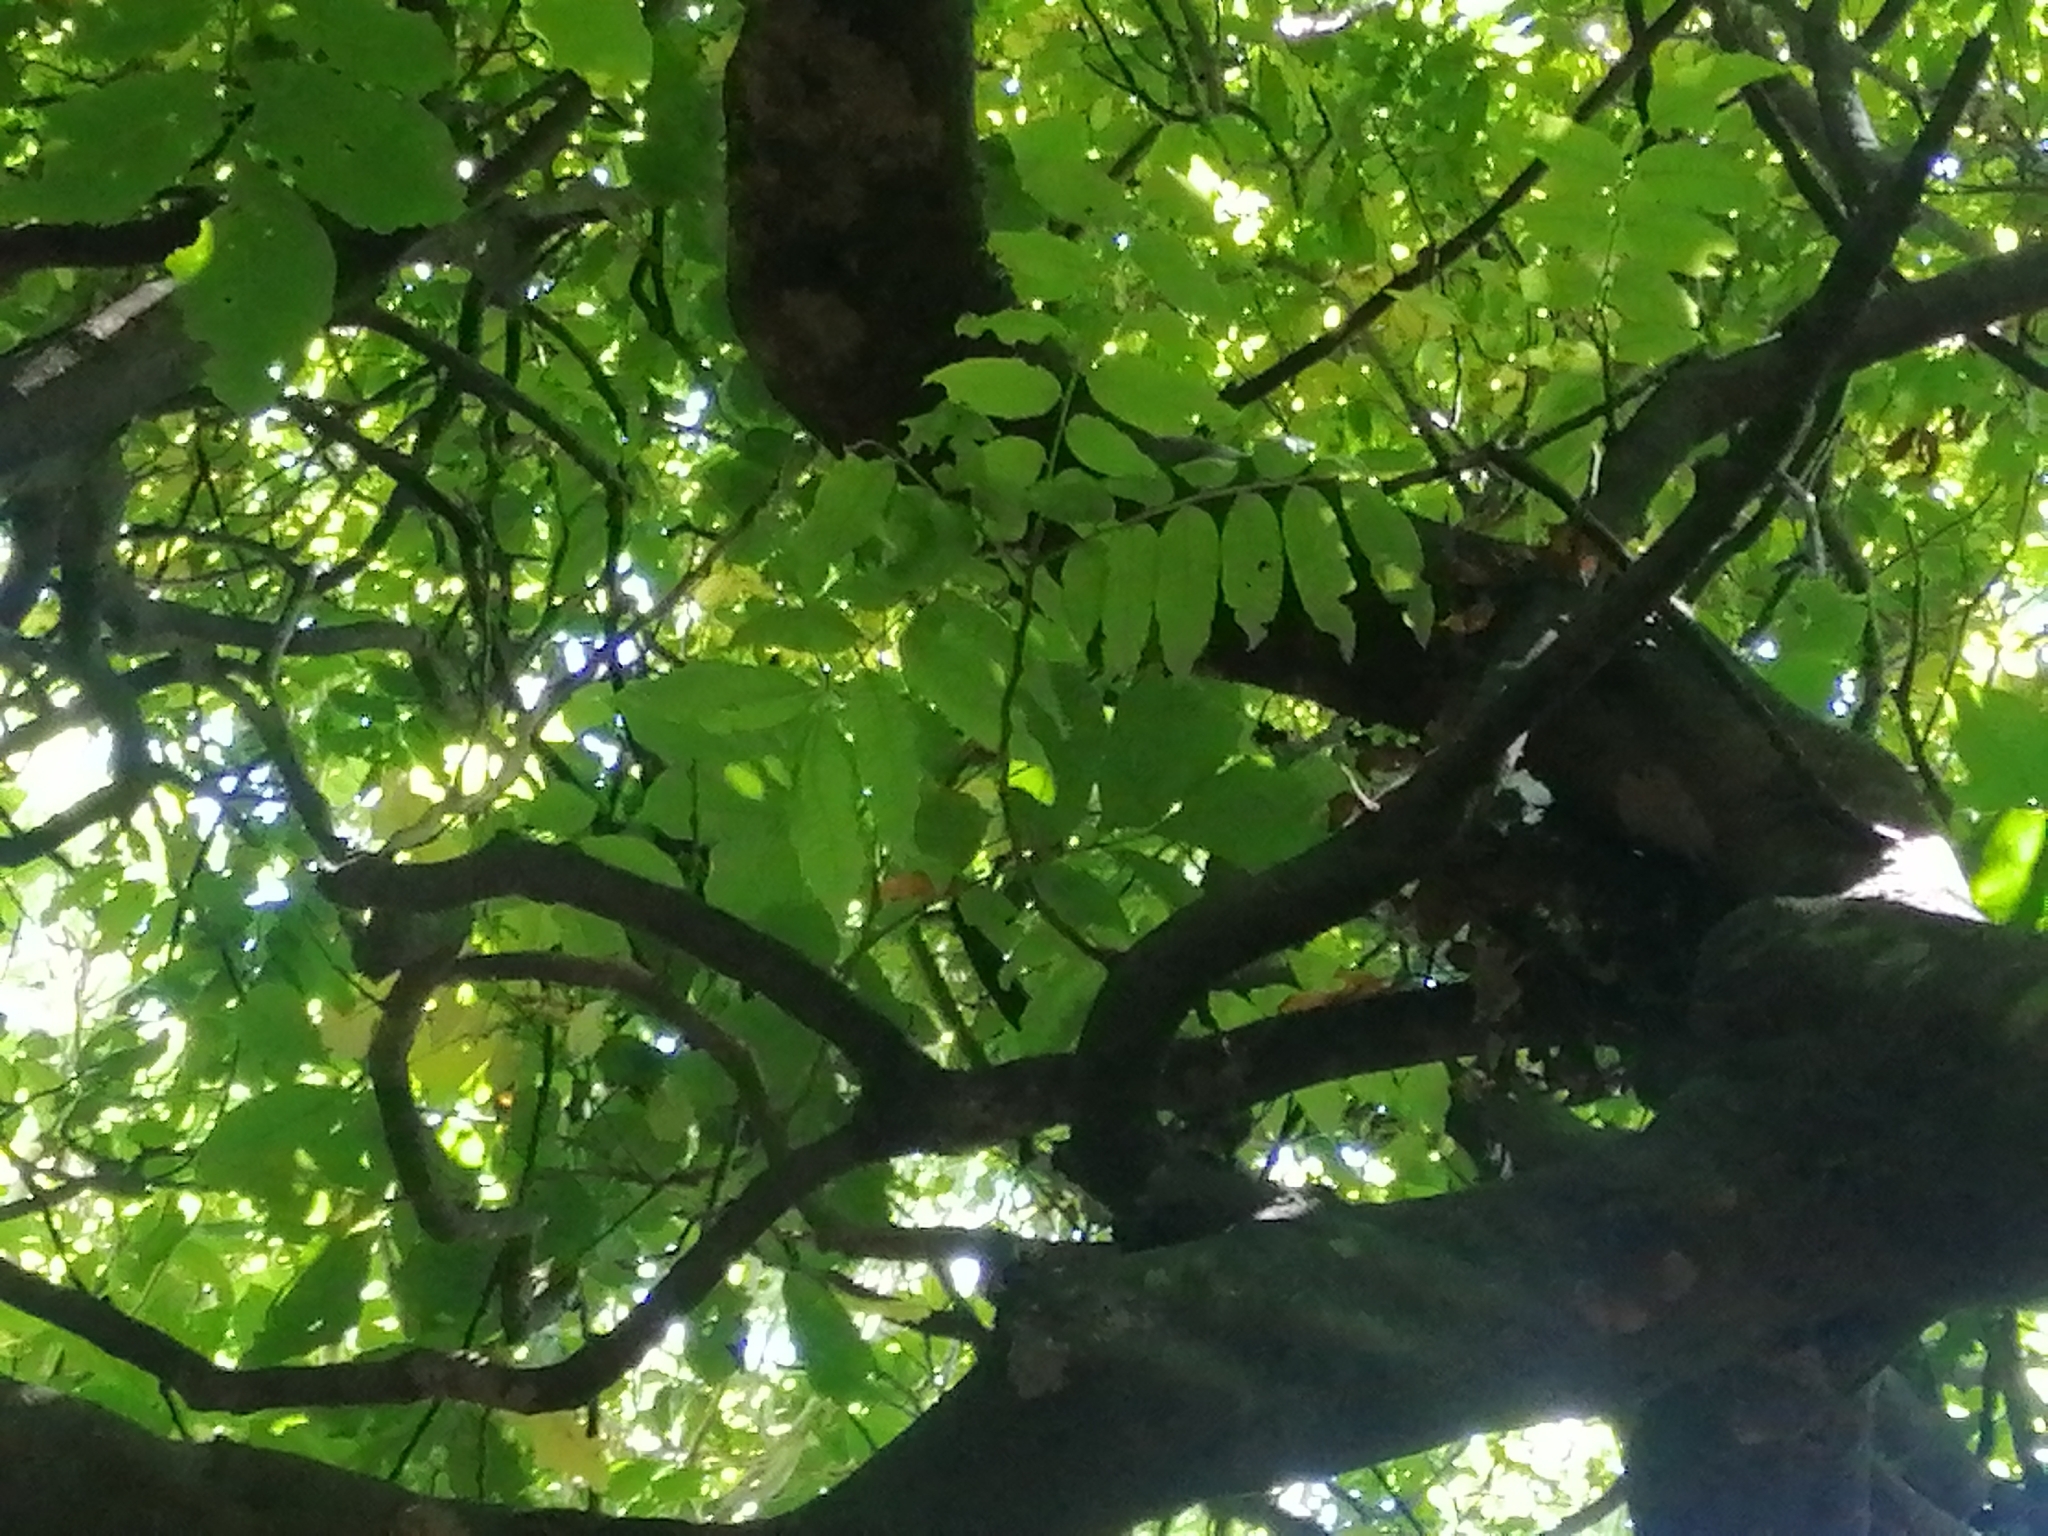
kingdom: Plantae
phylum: Tracheophyta
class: Magnoliopsida
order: Sapindales
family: Sapindaceae
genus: Alectryon
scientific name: Alectryon excelsus
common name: Three kings titoki
